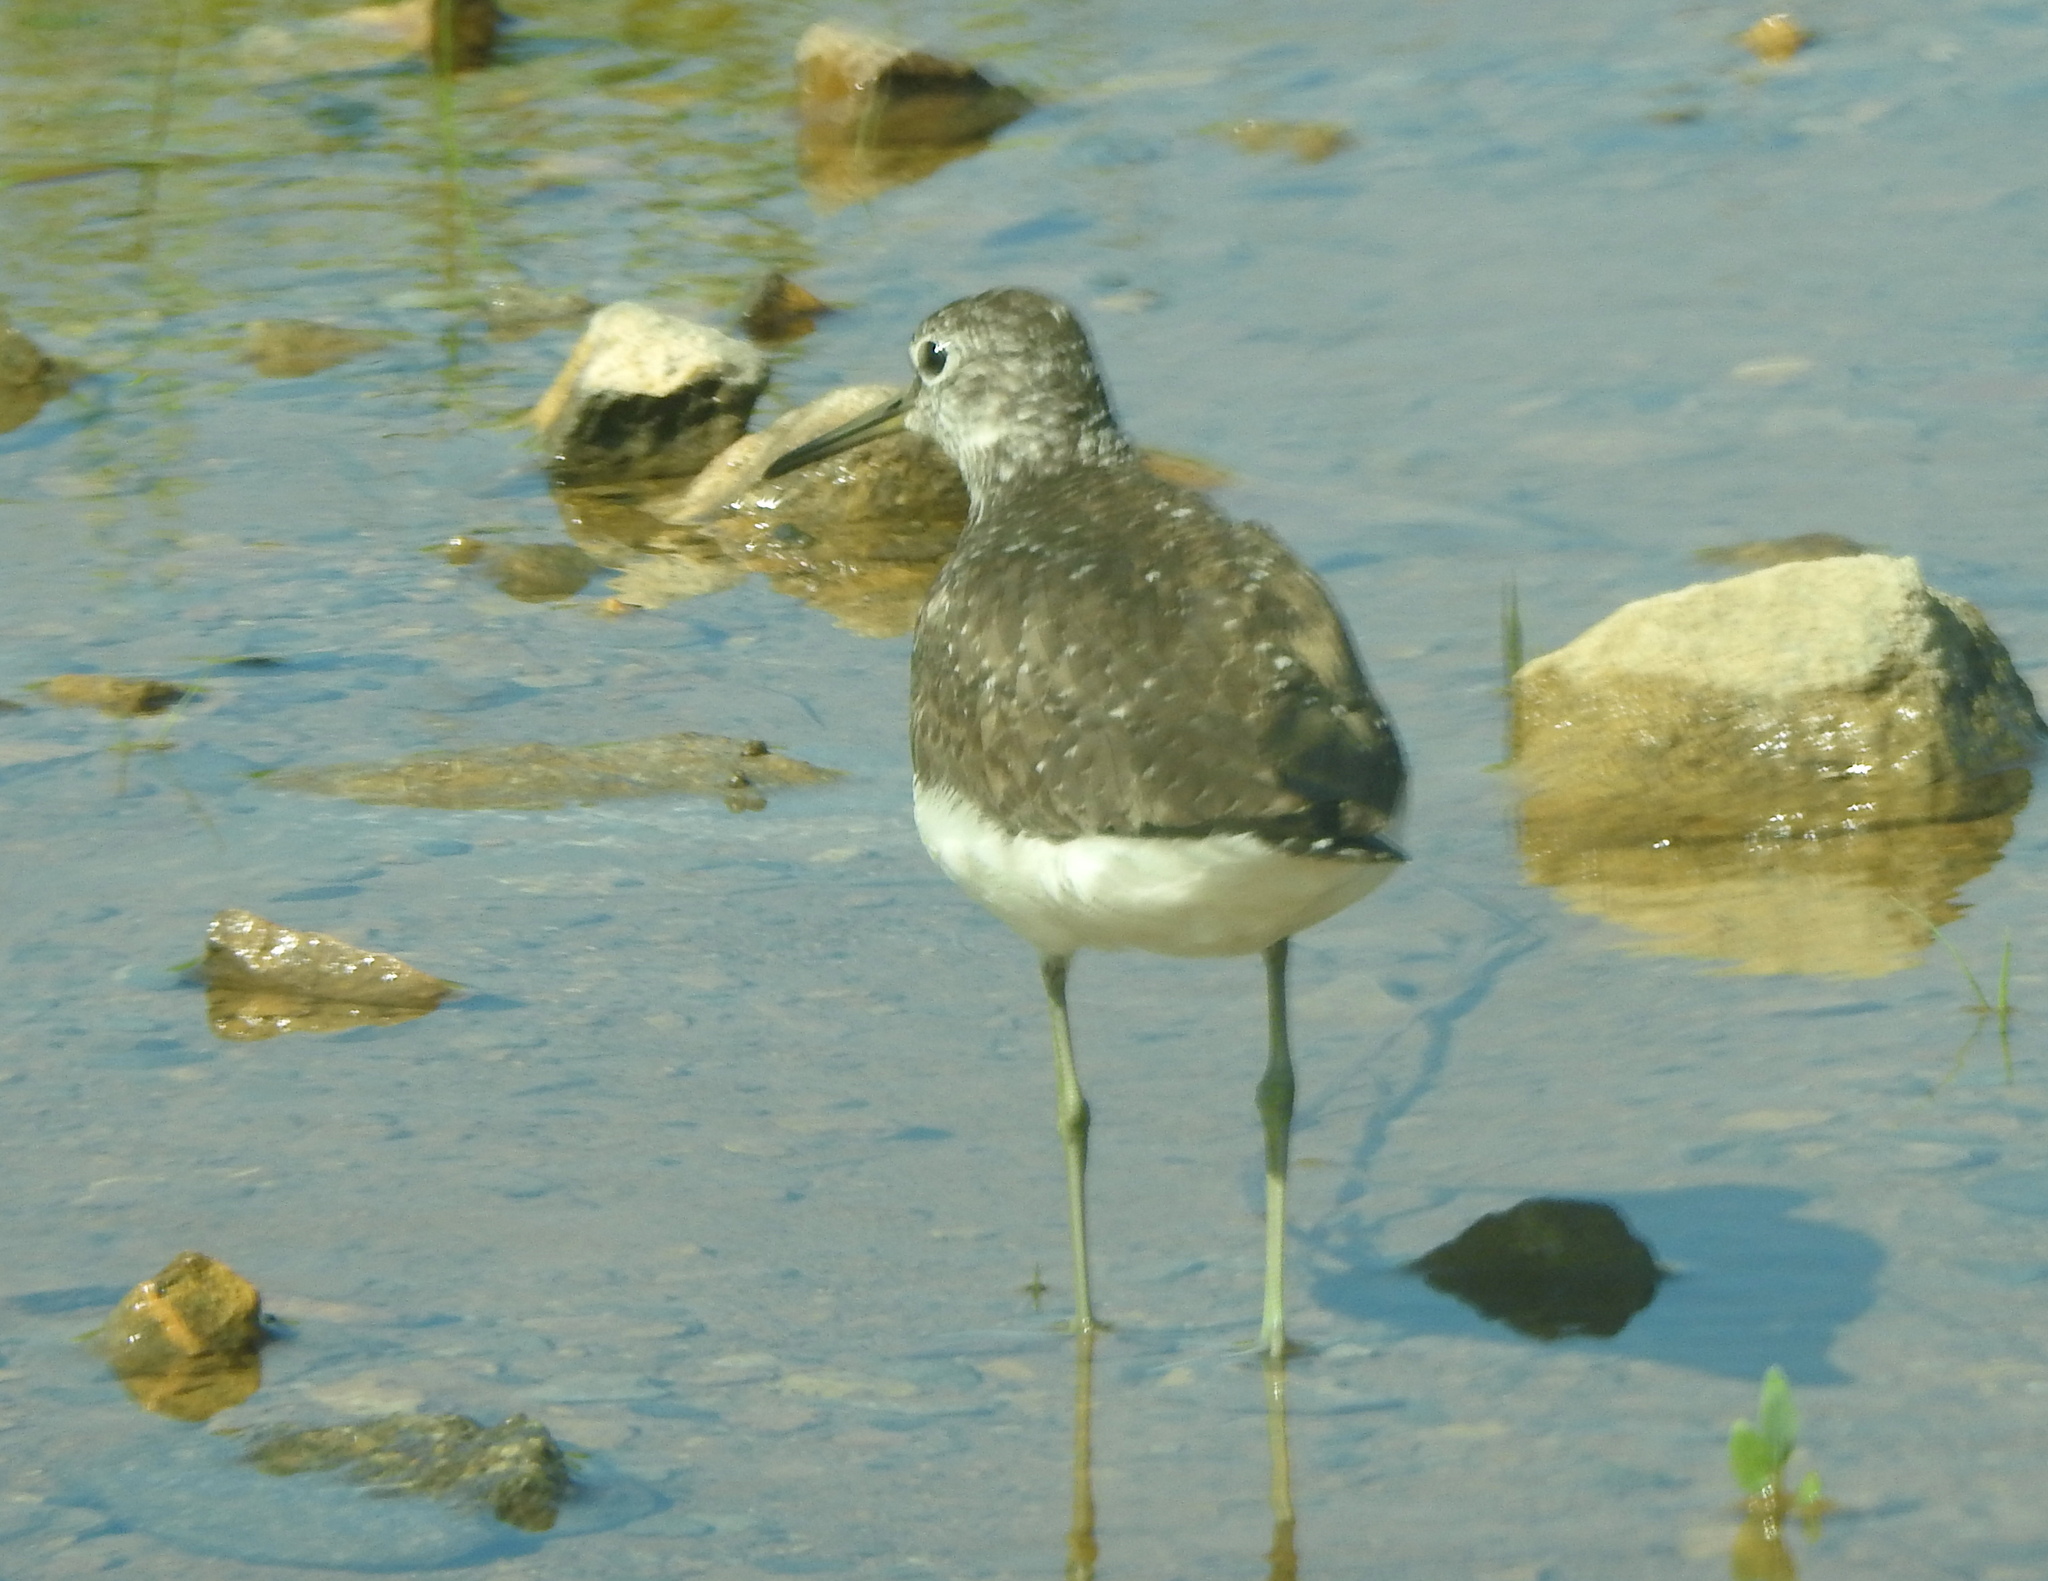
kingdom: Animalia
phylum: Chordata
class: Aves
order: Charadriiformes
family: Scolopacidae
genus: Tringa
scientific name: Tringa ochropus
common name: Green sandpiper
